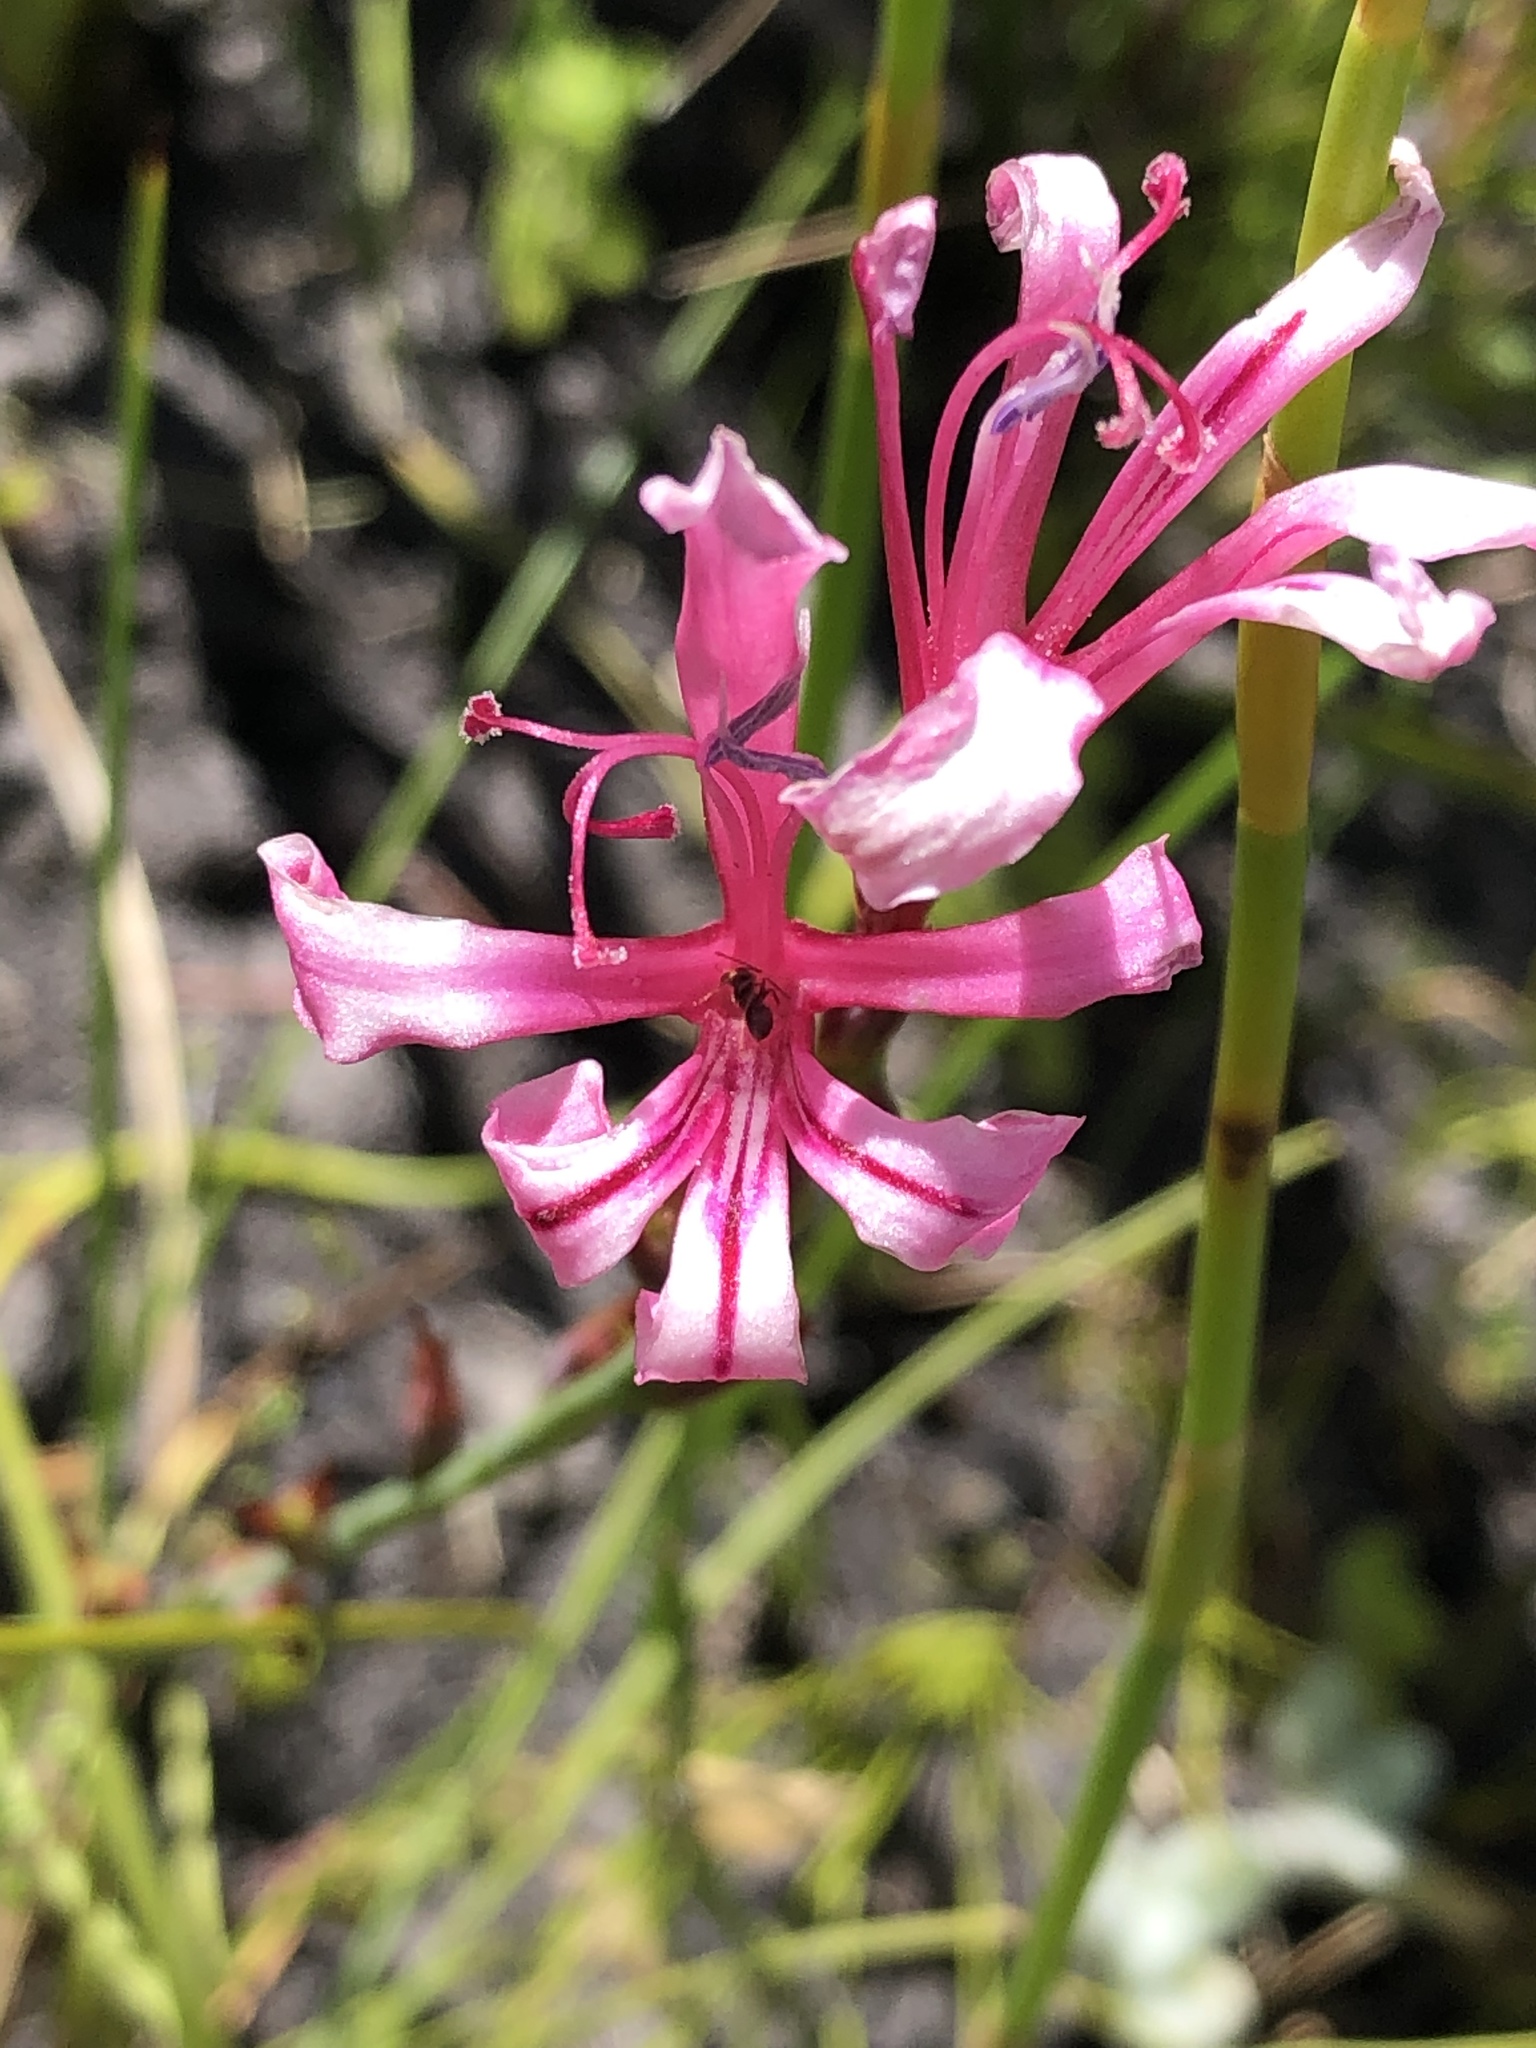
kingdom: Plantae
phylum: Tracheophyta
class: Liliopsida
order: Asparagales
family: Iridaceae
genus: Tritoniopsis
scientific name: Tritoniopsis ramosa
